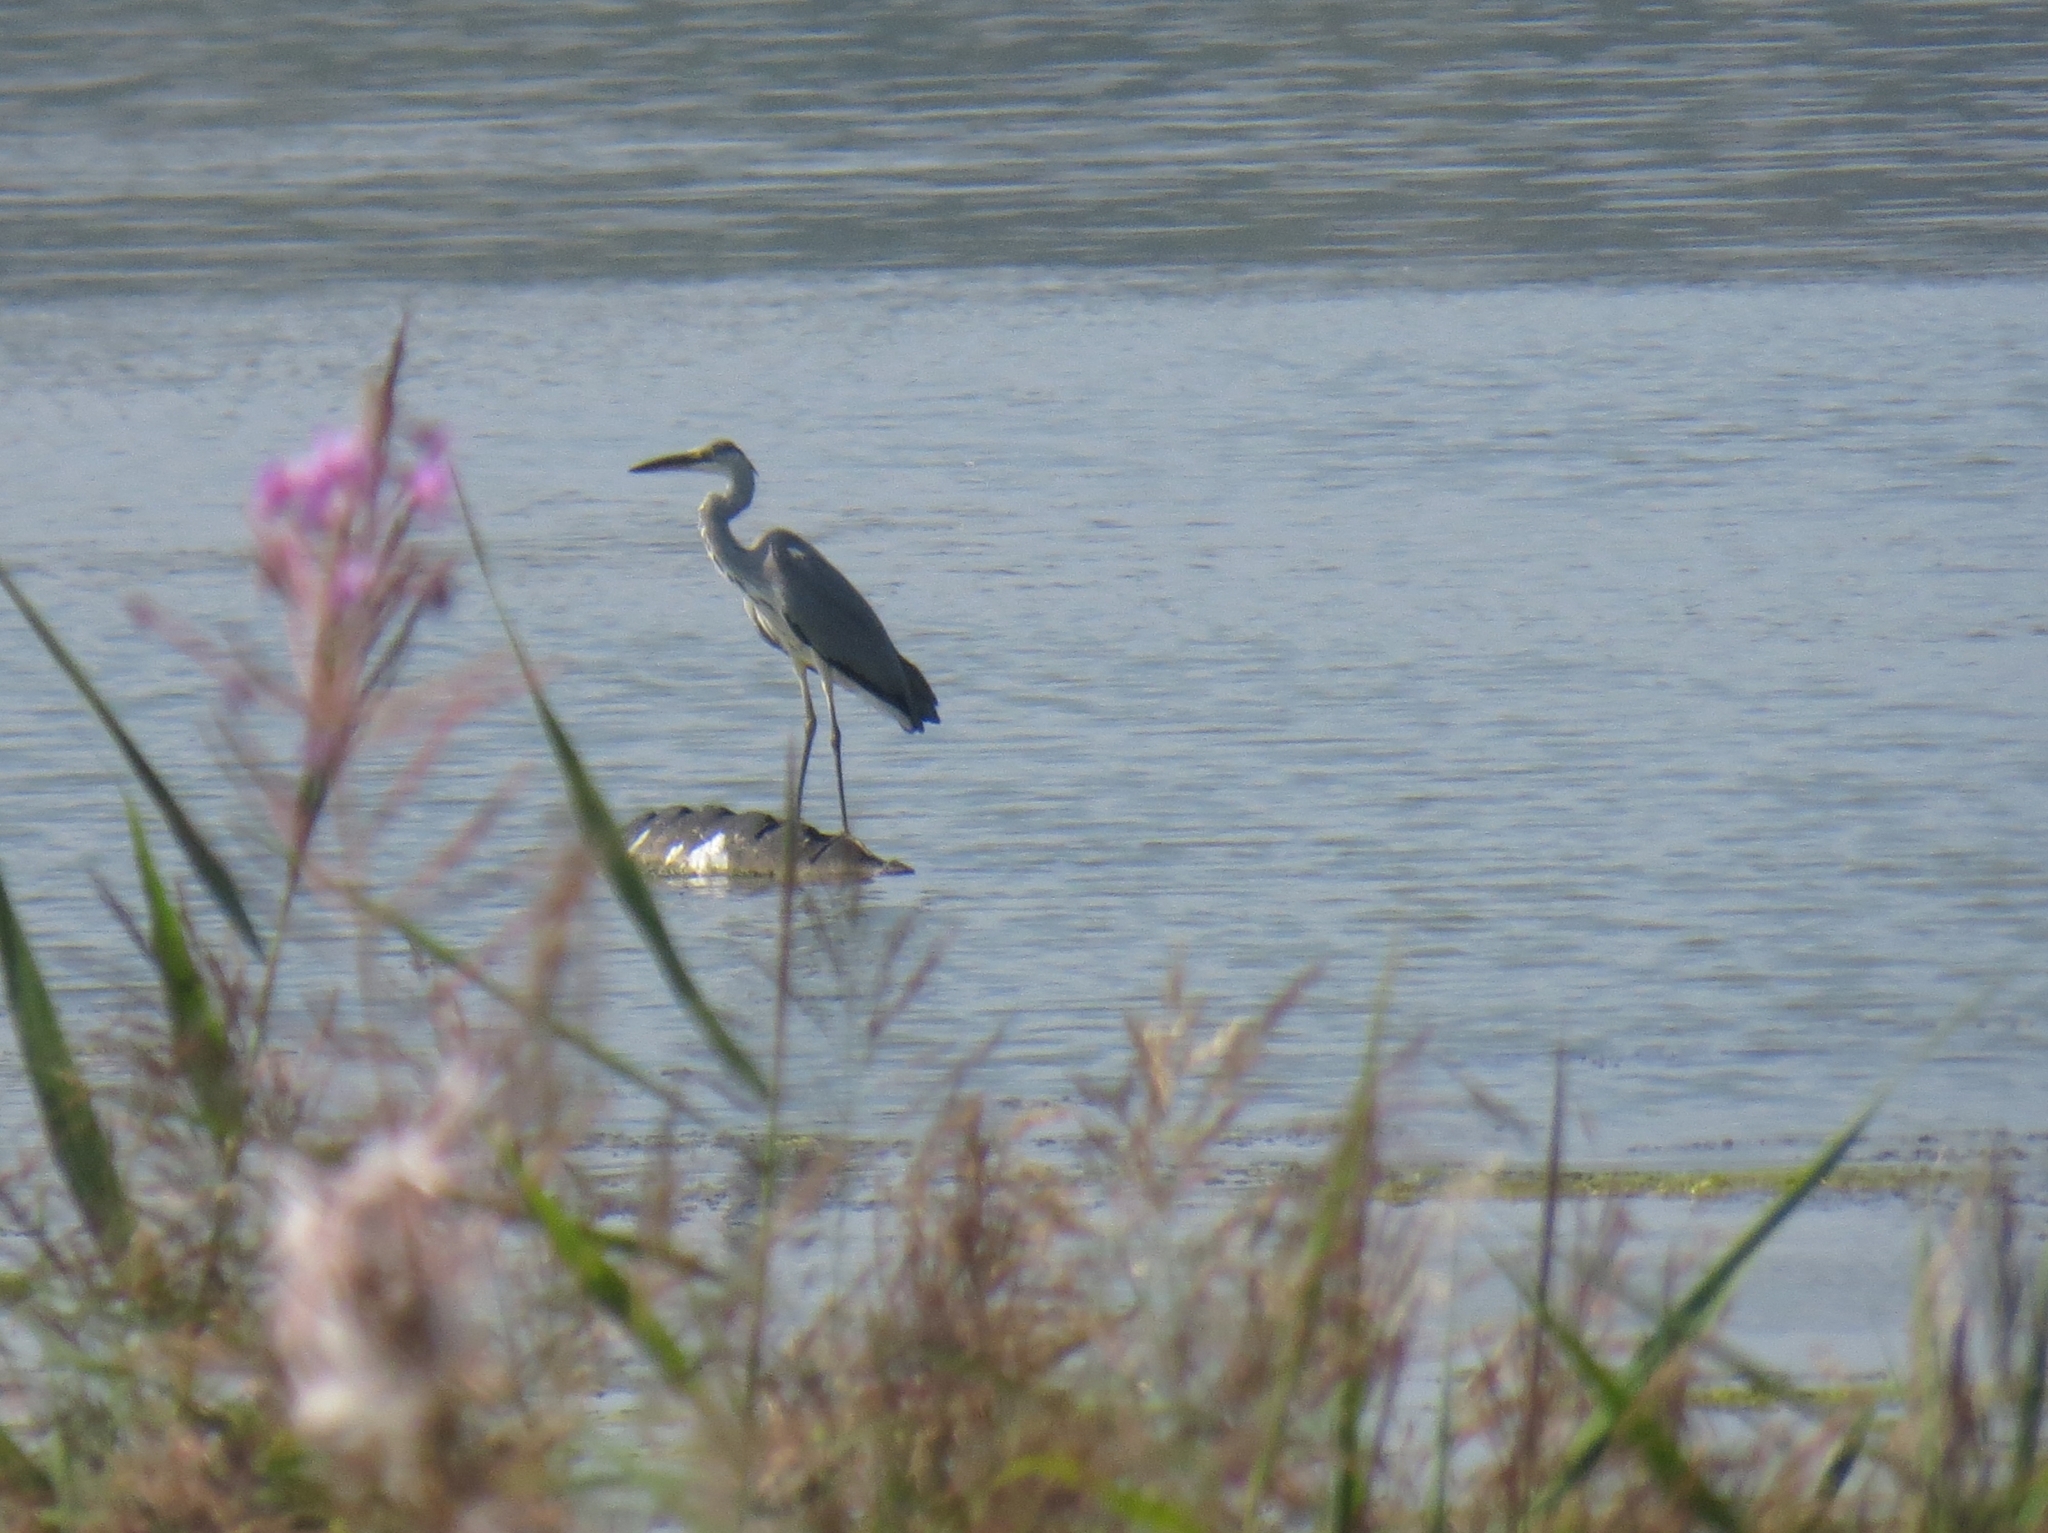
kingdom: Animalia
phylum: Chordata
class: Aves
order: Pelecaniformes
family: Ardeidae
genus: Ardea
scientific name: Ardea cinerea
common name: Grey heron
